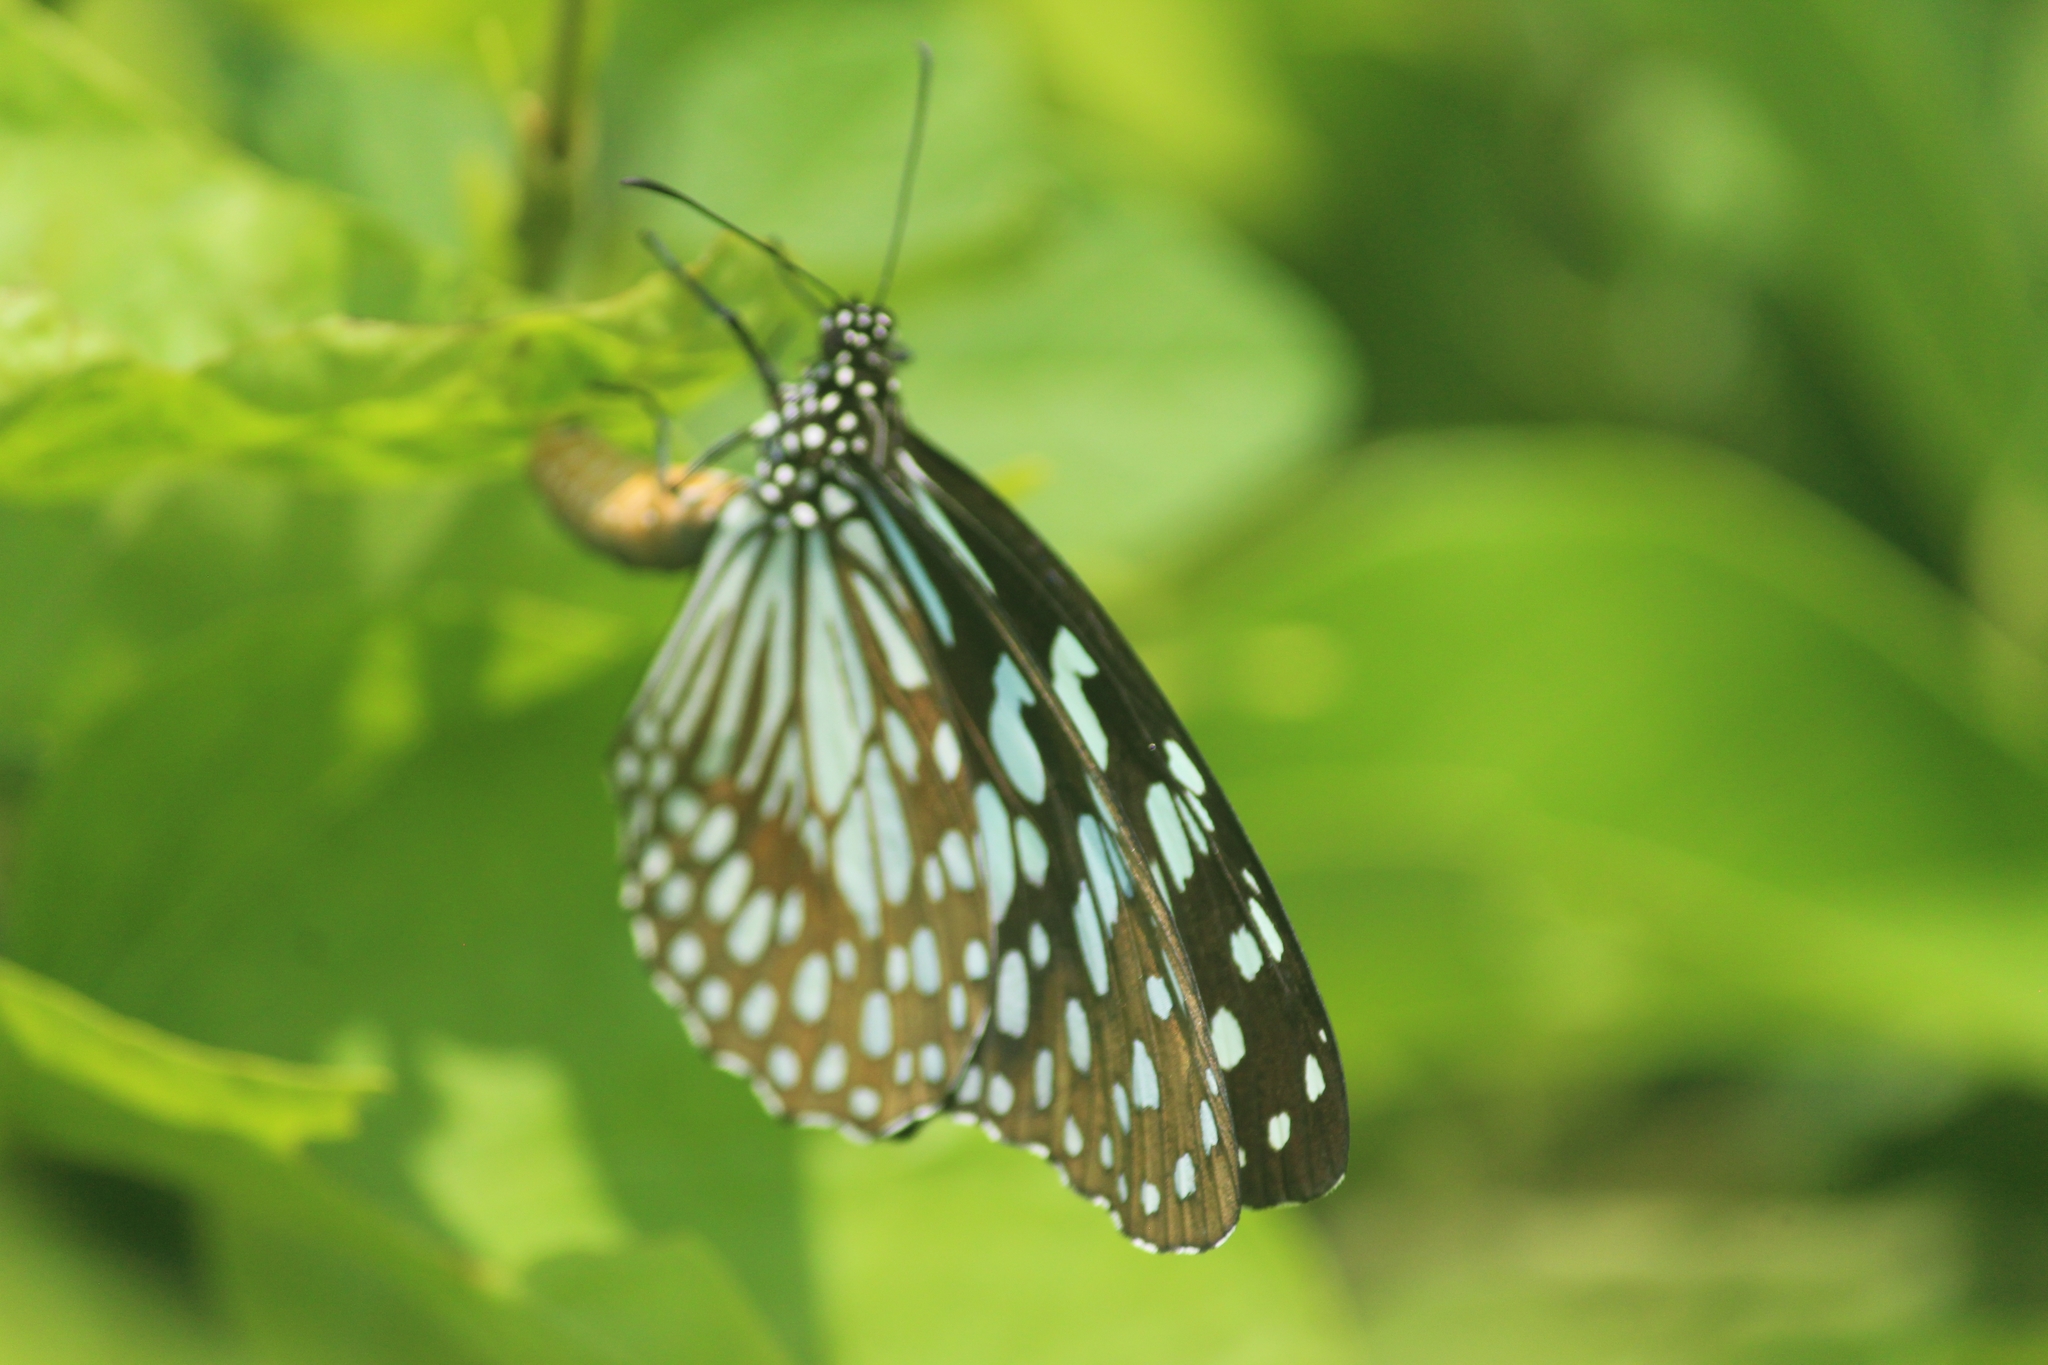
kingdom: Animalia
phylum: Arthropoda
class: Insecta
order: Lepidoptera
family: Nymphalidae
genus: Tirumala
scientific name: Tirumala limniace
